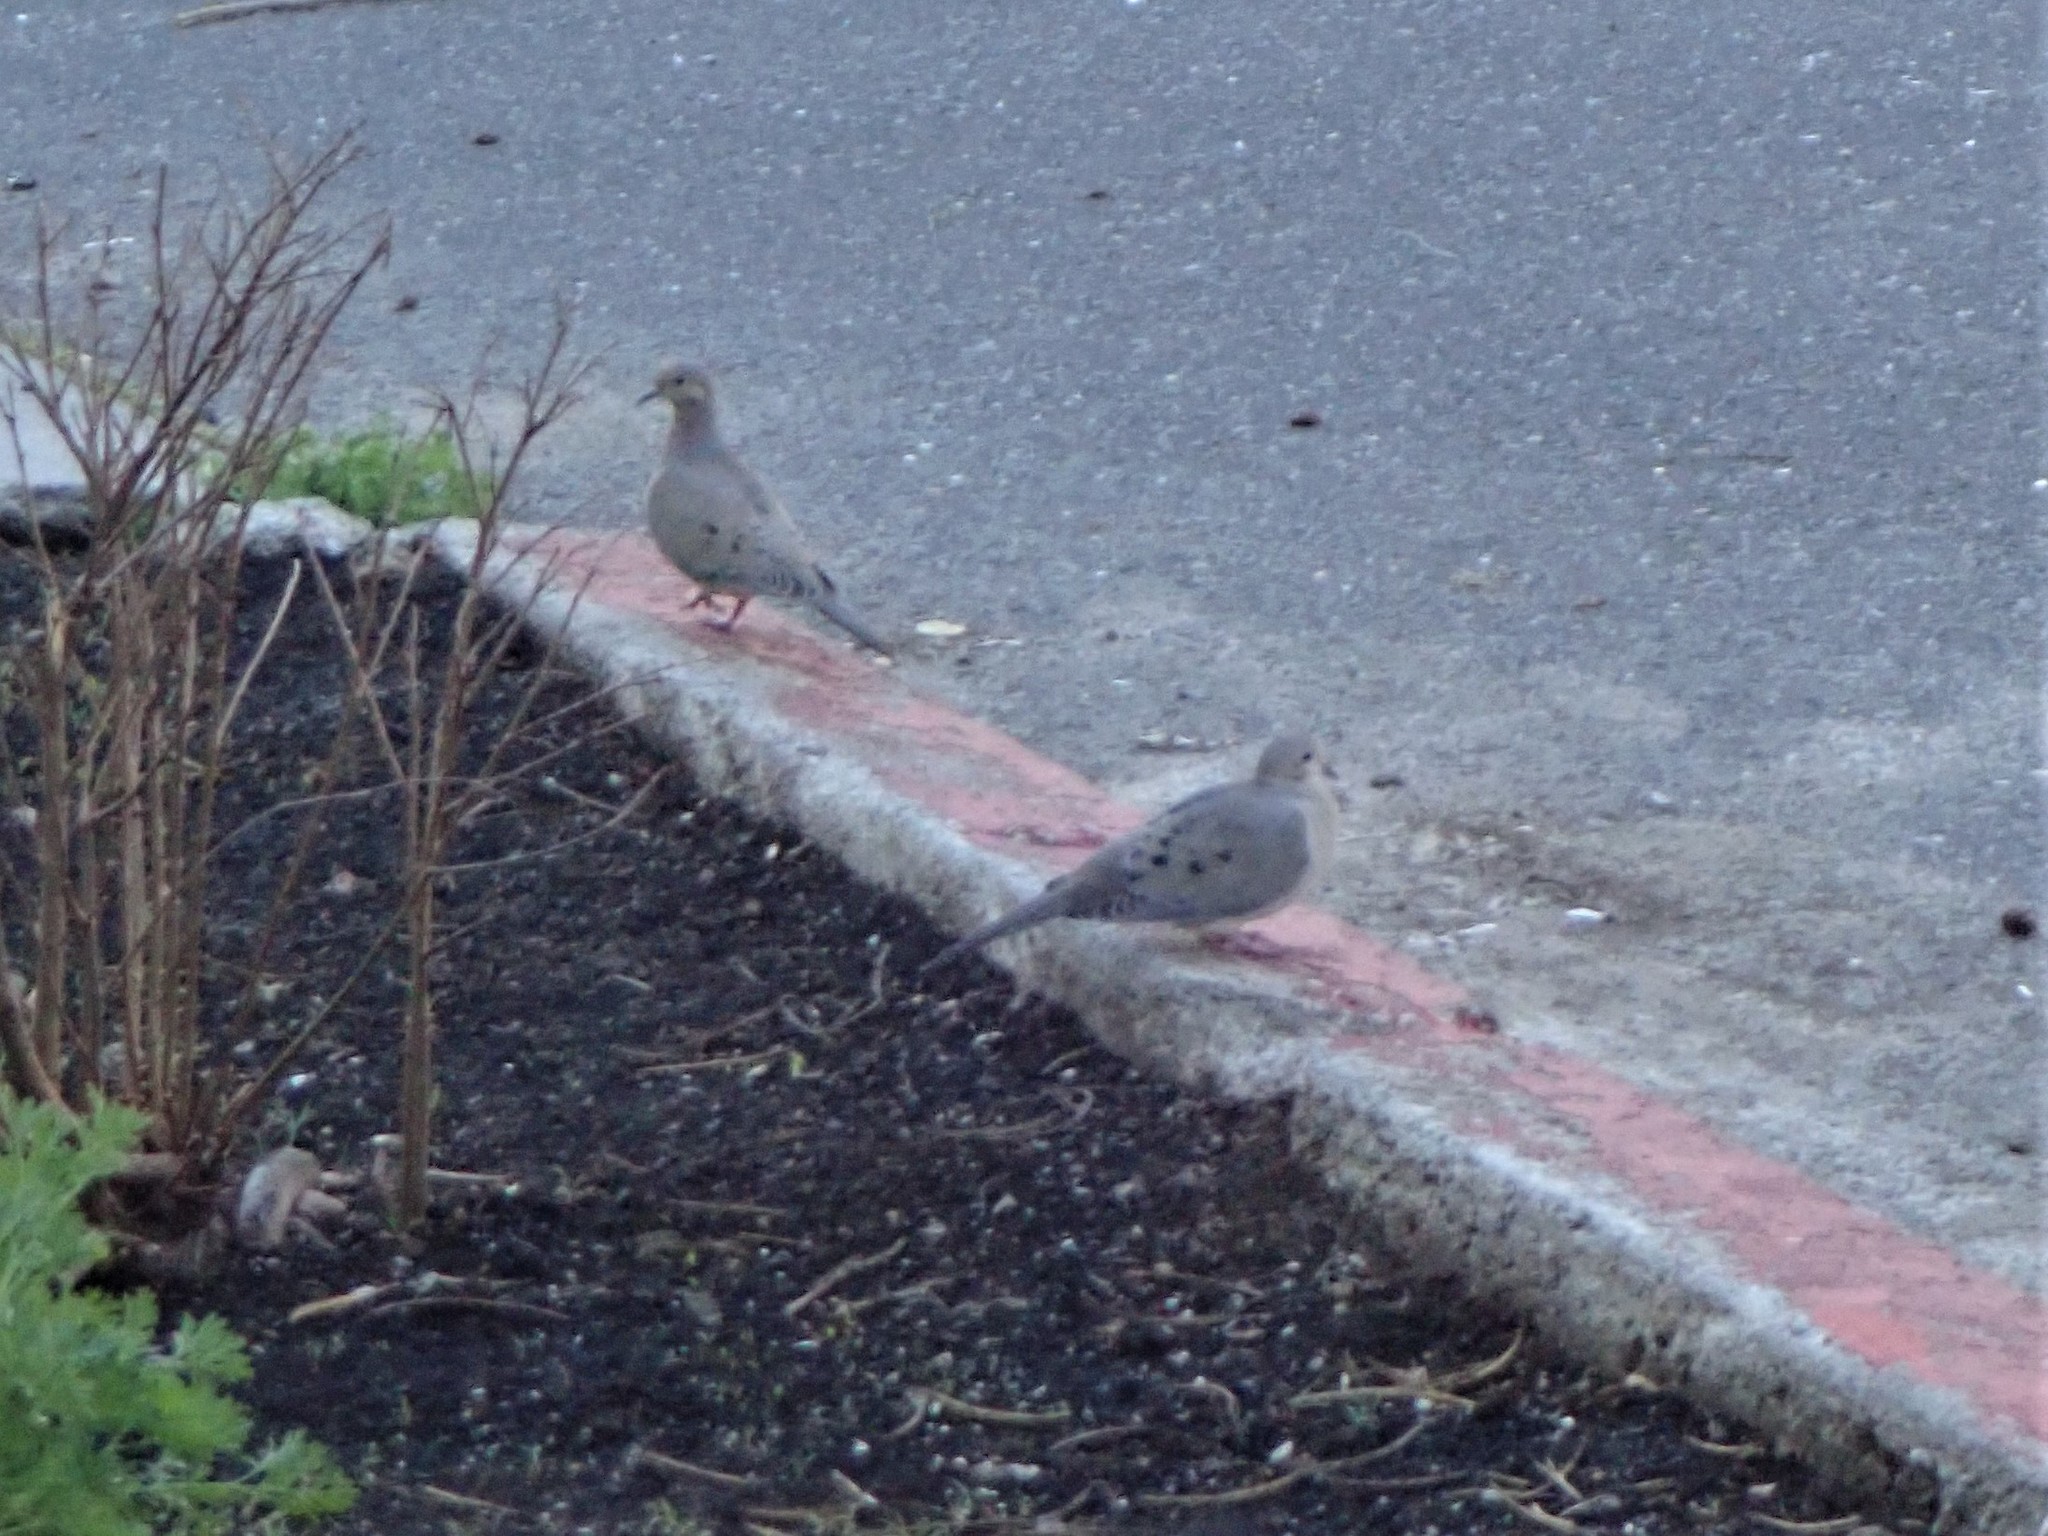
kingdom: Animalia
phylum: Chordata
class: Aves
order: Columbiformes
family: Columbidae
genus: Zenaida
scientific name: Zenaida macroura
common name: Mourning dove
